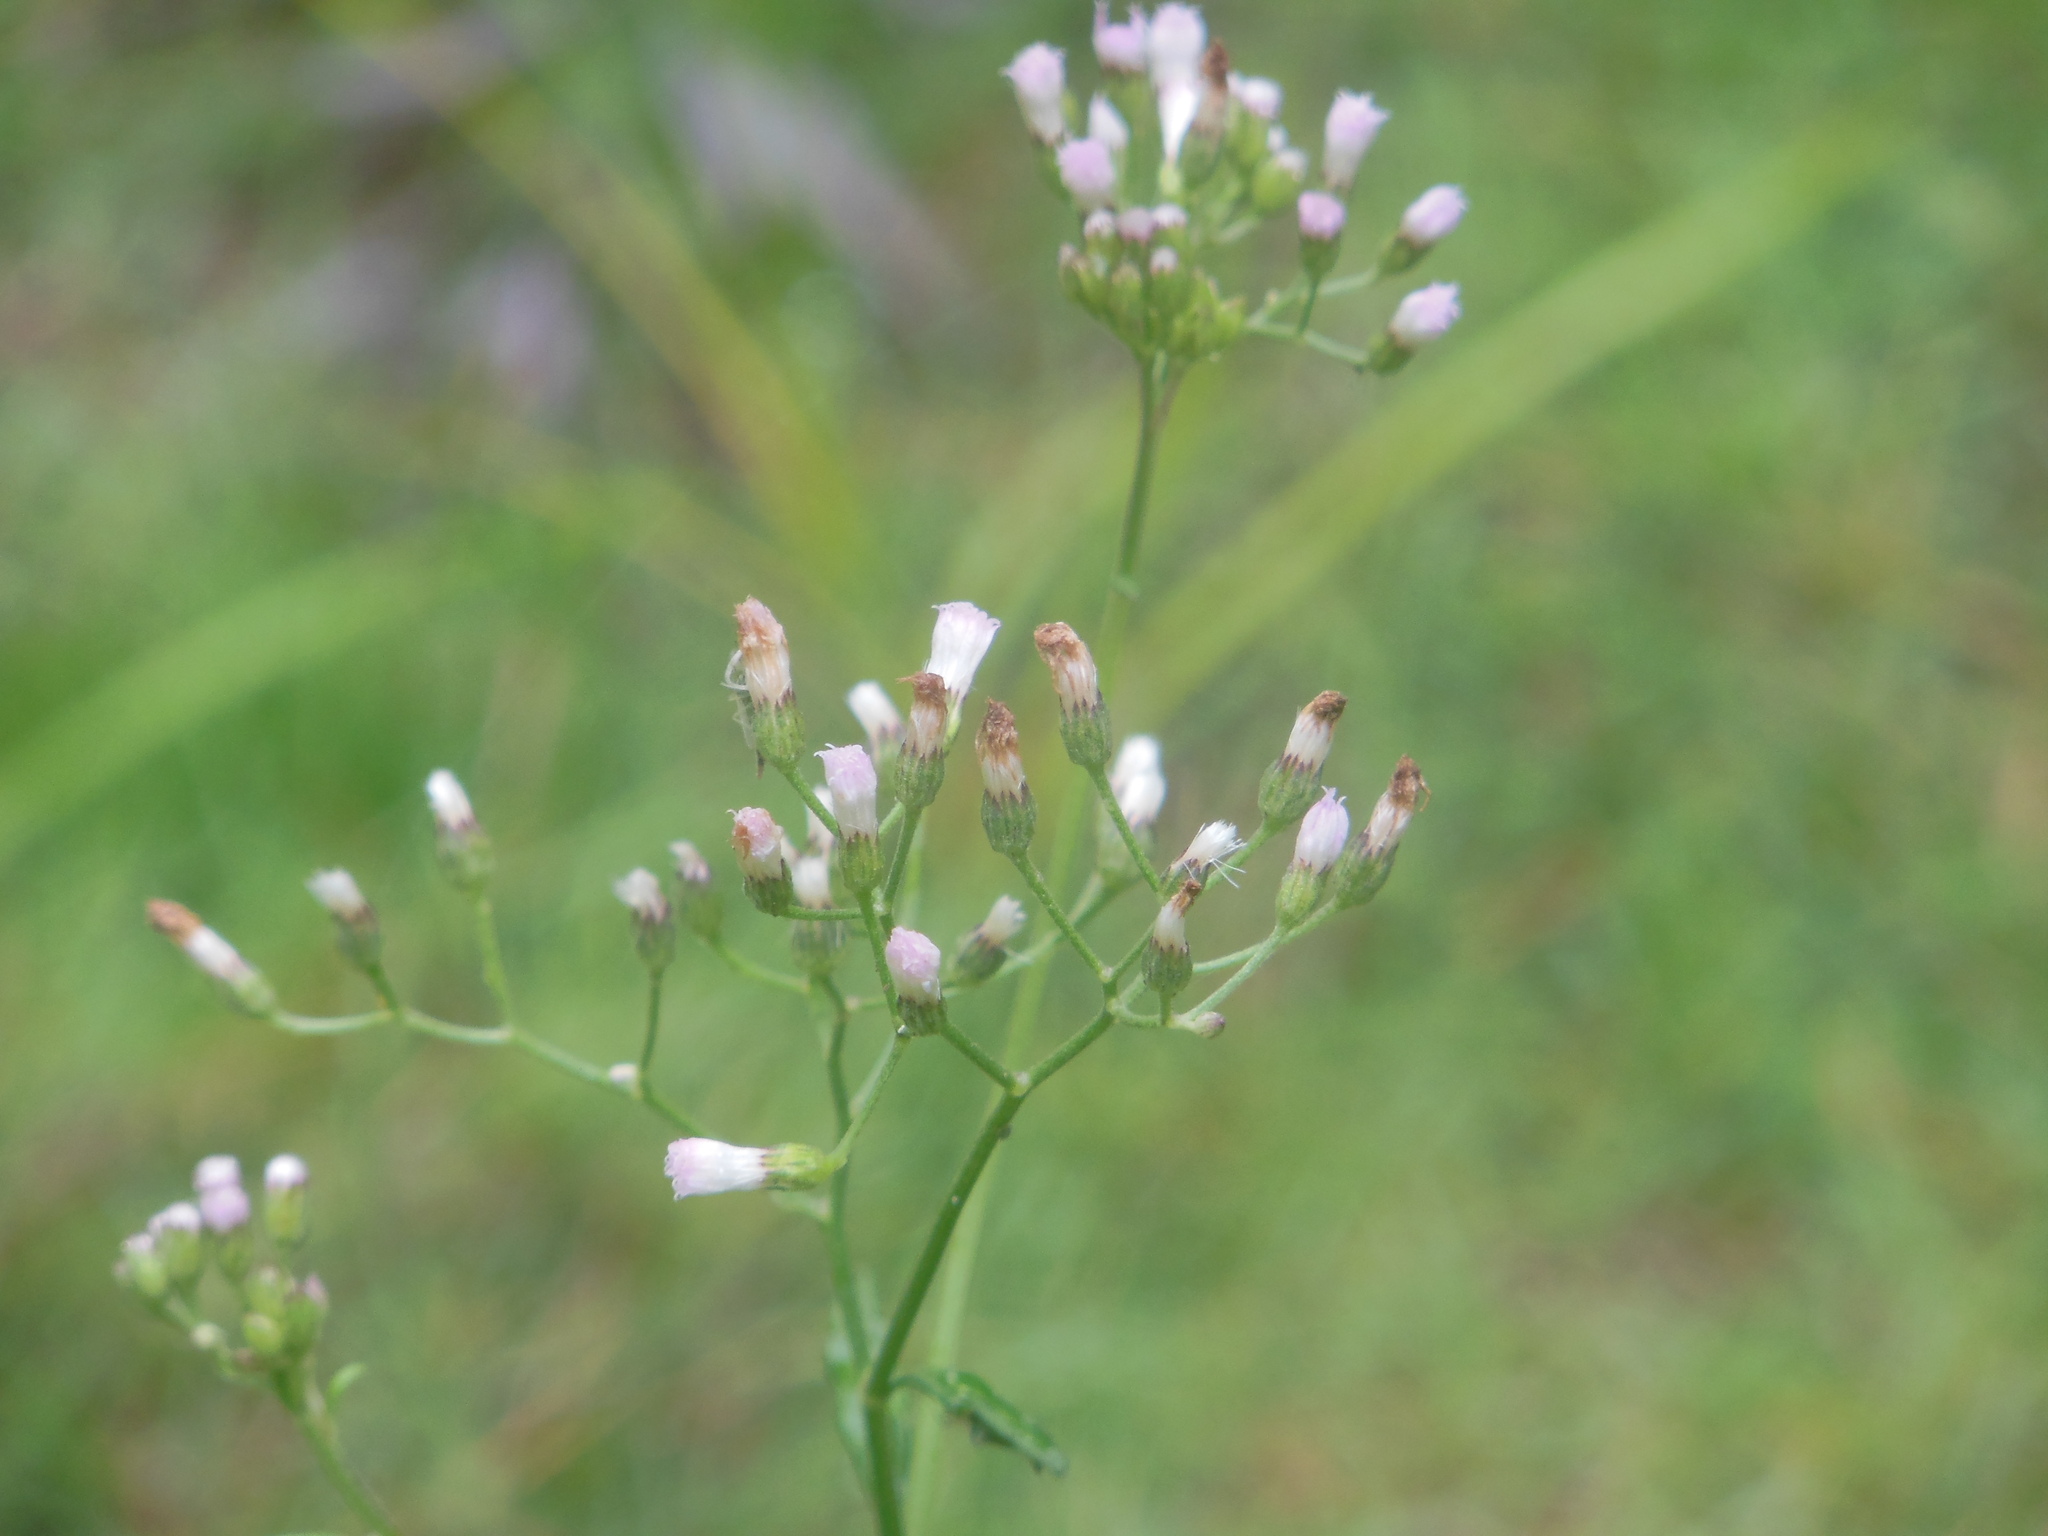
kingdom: Plantae
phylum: Tracheophyta
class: Magnoliopsida
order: Asterales
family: Asteraceae
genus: Cyanthillium
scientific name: Cyanthillium cinereum
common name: Little ironweed
